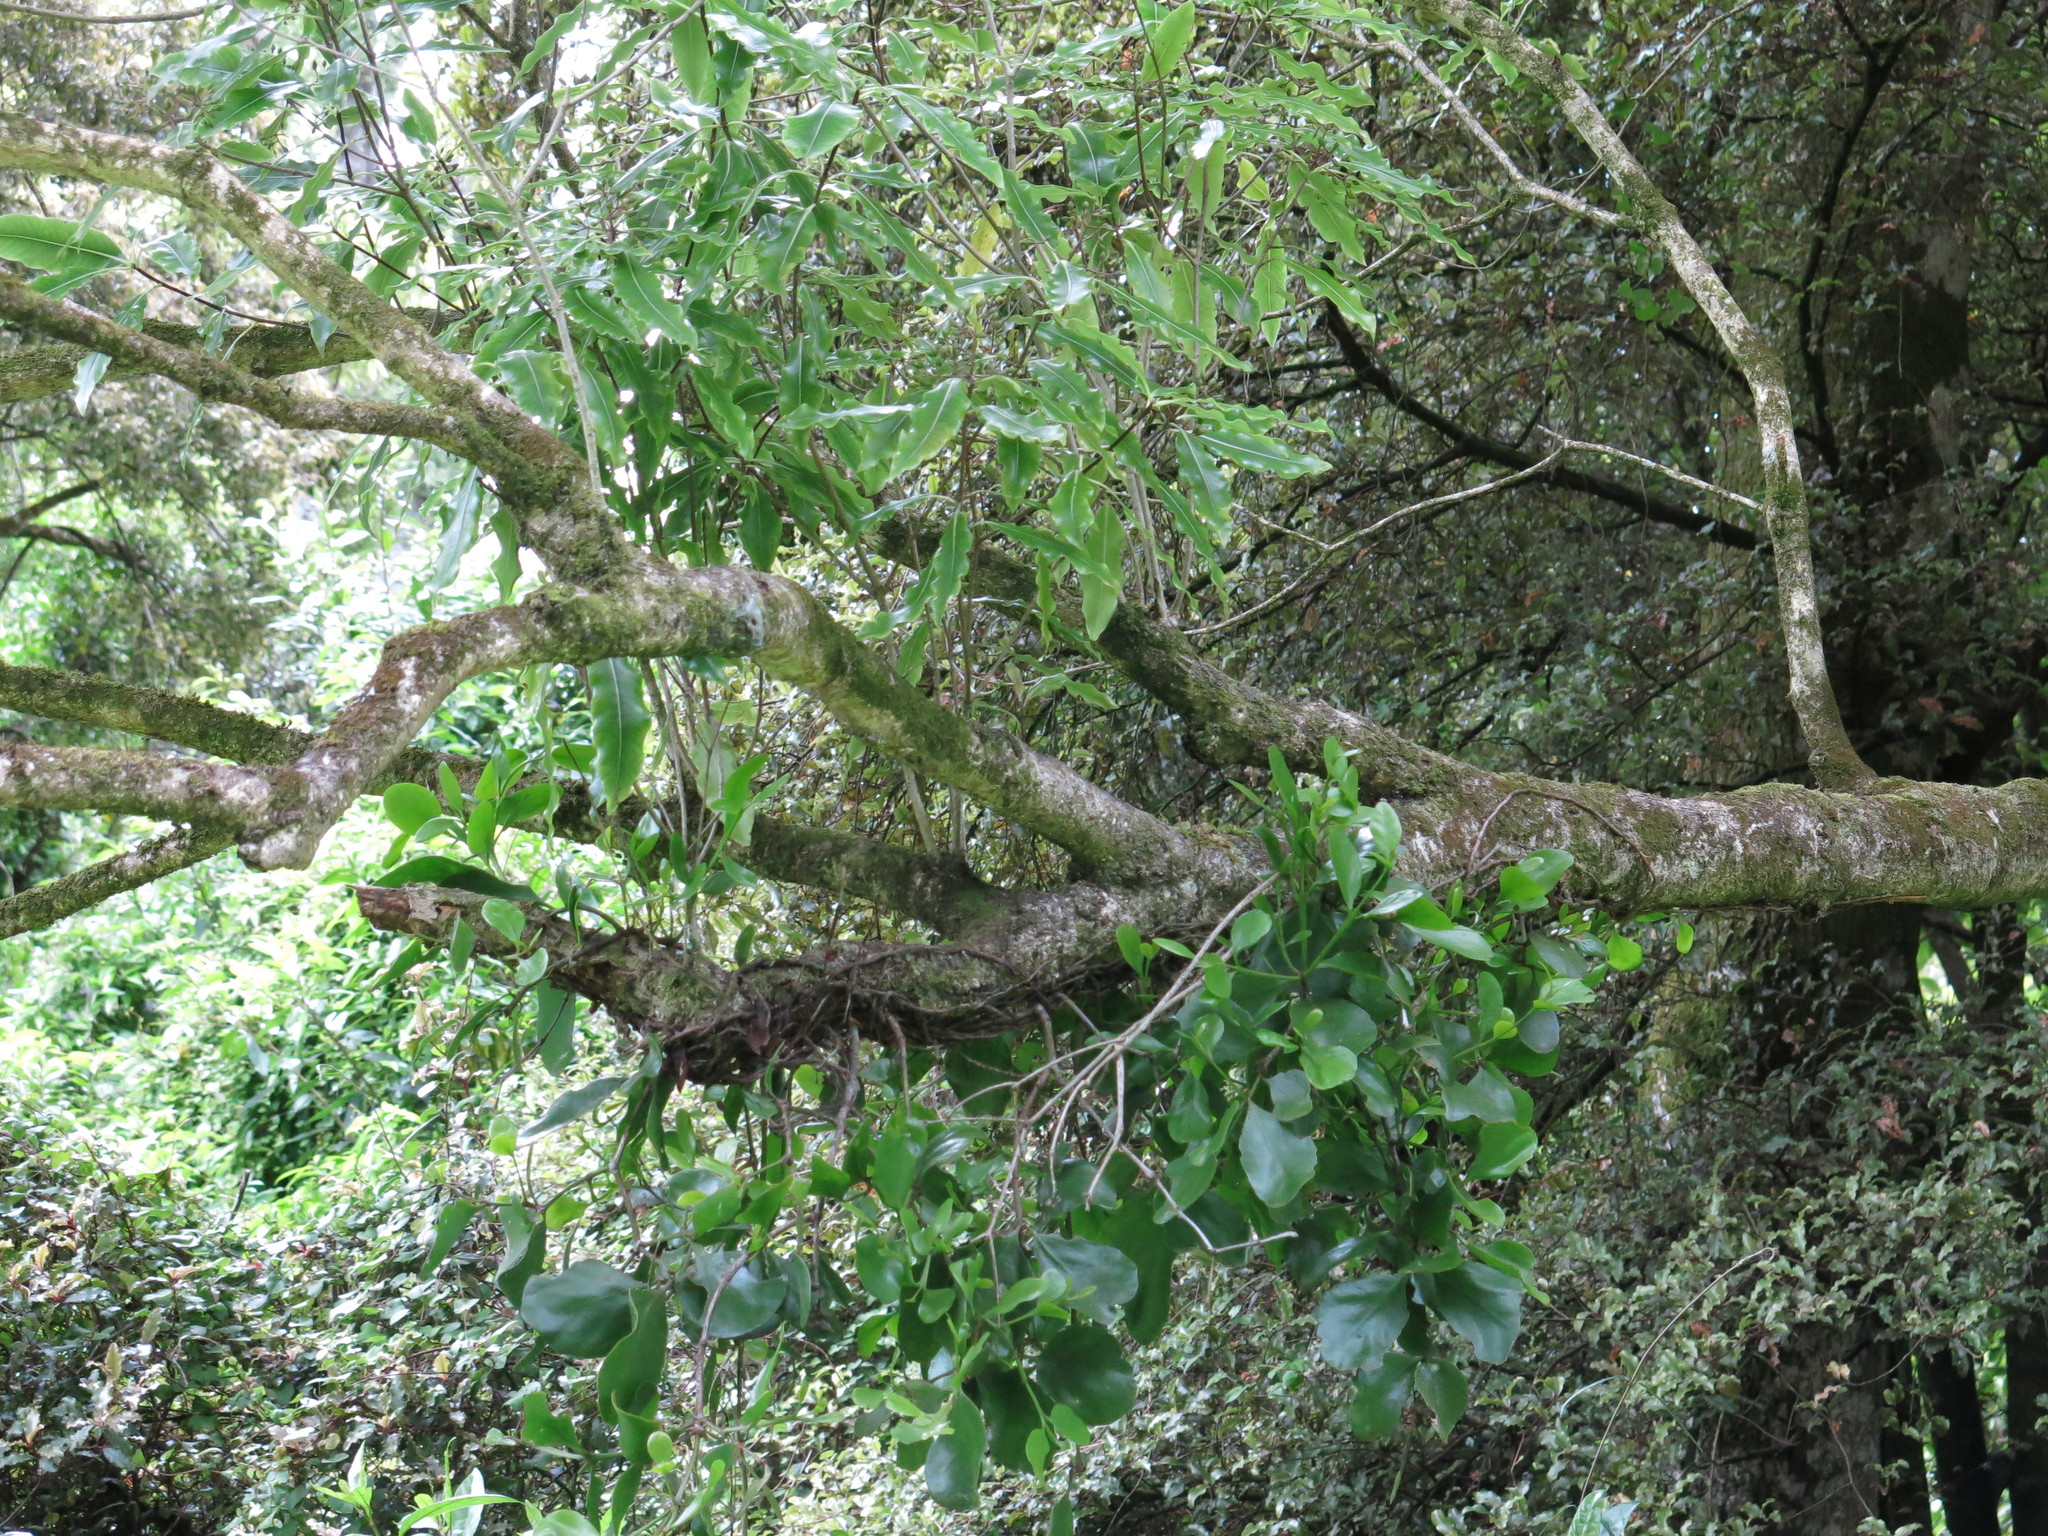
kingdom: Plantae
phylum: Tracheophyta
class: Magnoliopsida
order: Santalales
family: Loranthaceae
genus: Ileostylus
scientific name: Ileostylus micranthus
